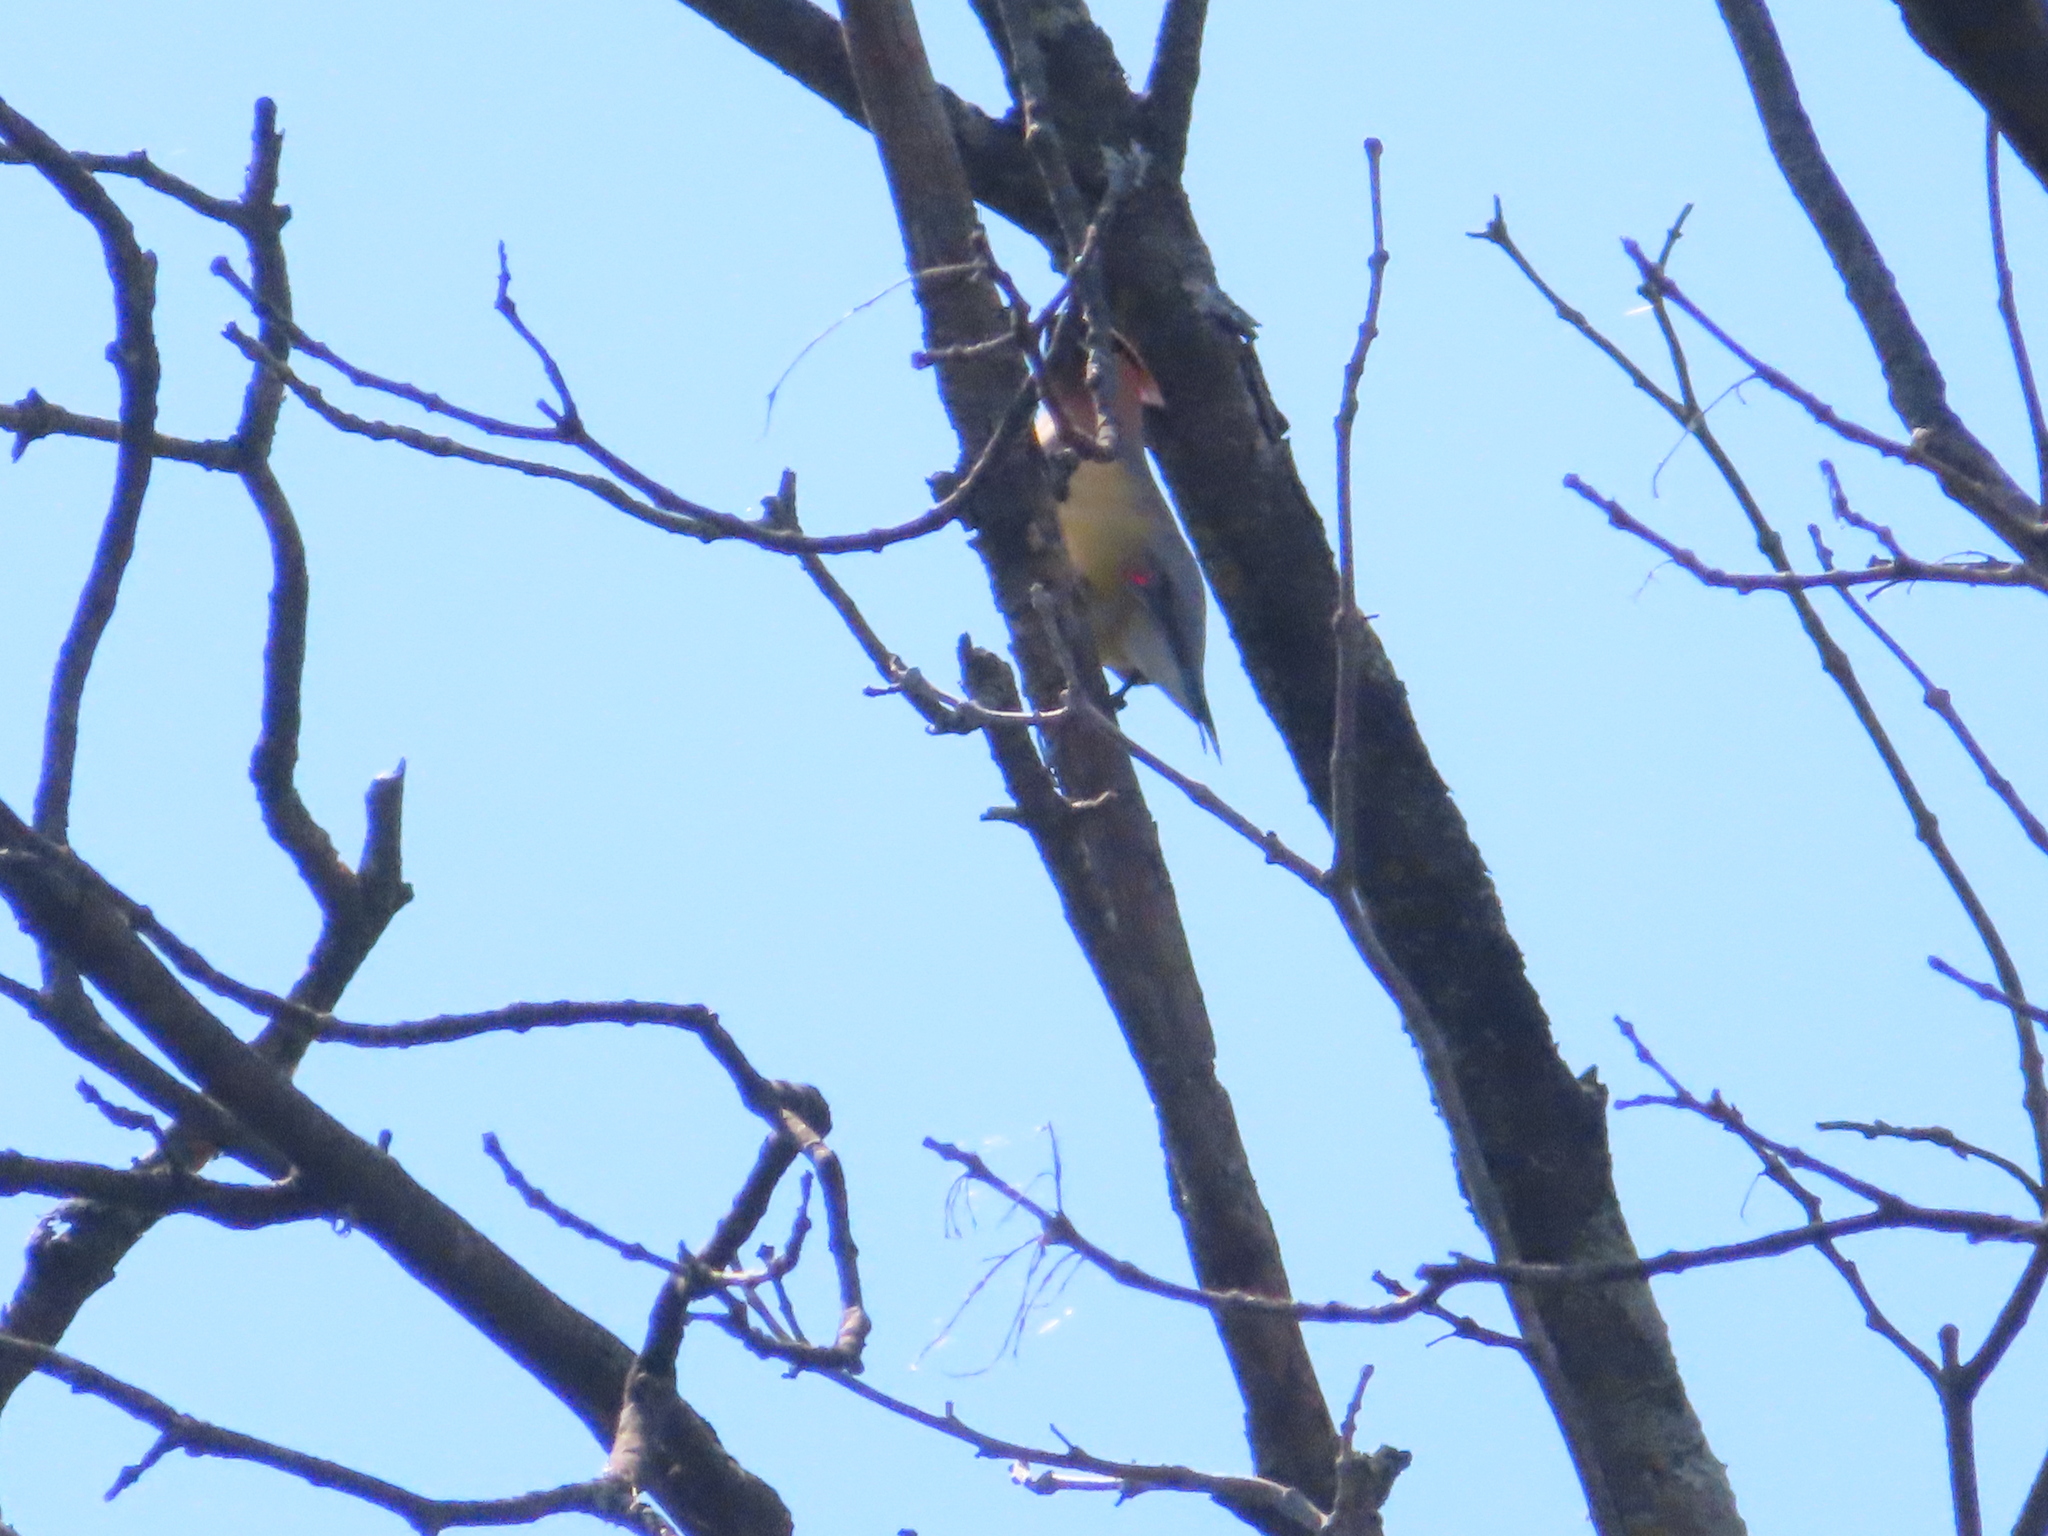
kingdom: Animalia
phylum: Chordata
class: Aves
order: Passeriformes
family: Bombycillidae
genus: Bombycilla
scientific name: Bombycilla cedrorum
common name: Cedar waxwing
